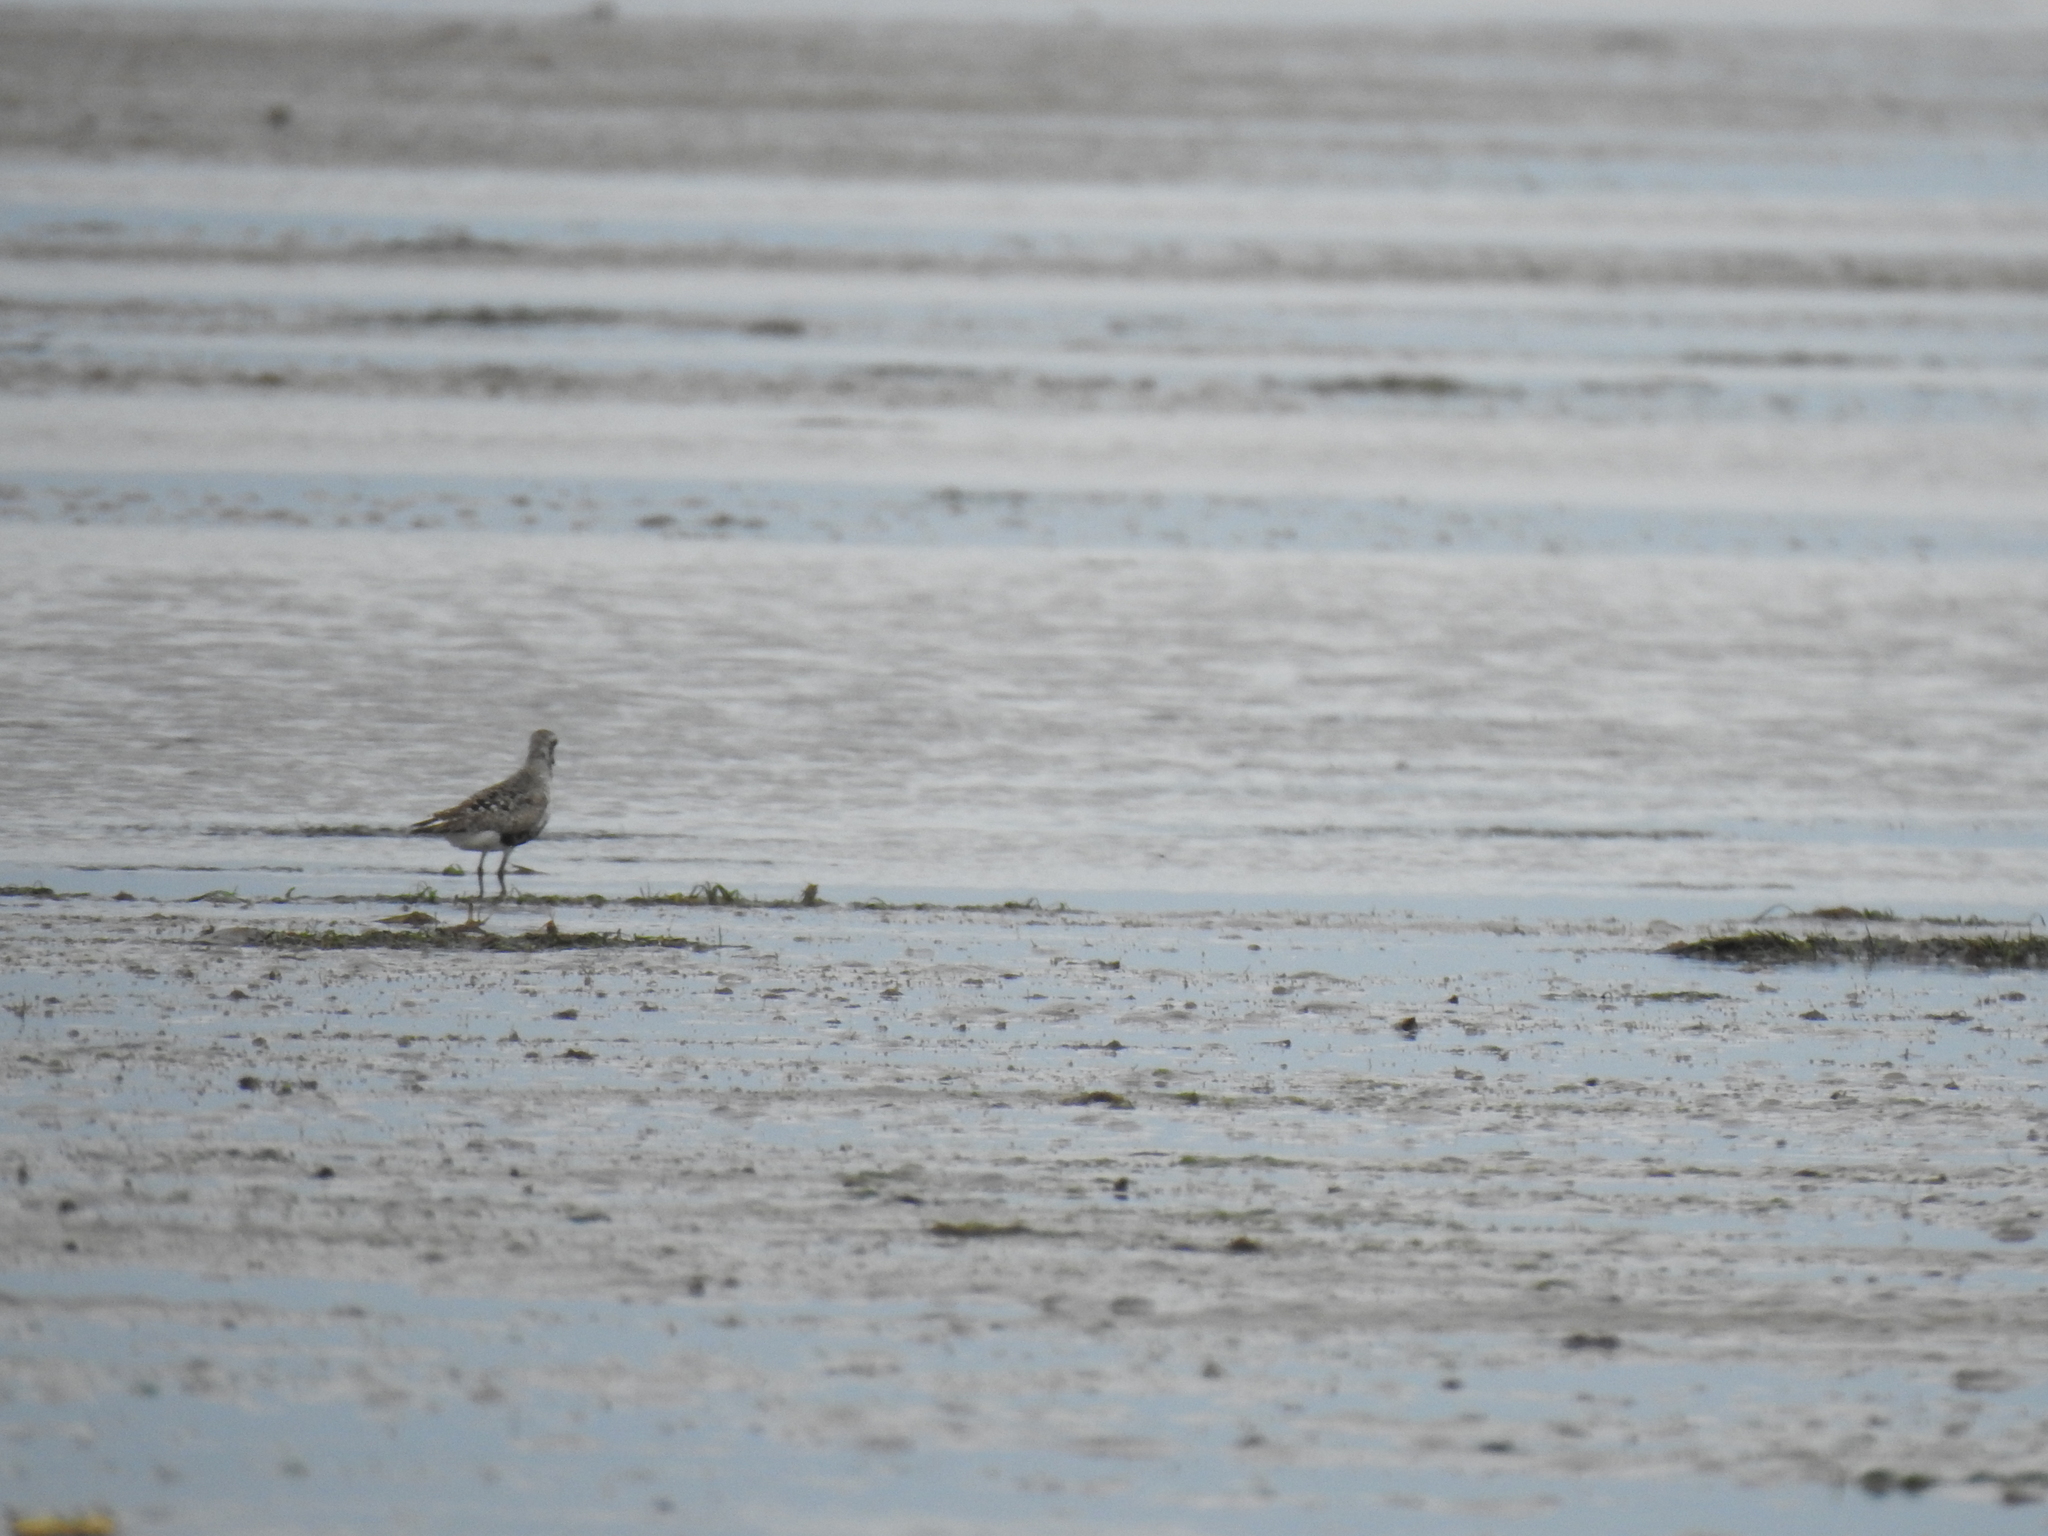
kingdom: Animalia
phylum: Chordata
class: Aves
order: Charadriiformes
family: Charadriidae
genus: Pluvialis
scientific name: Pluvialis squatarola
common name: Grey plover
